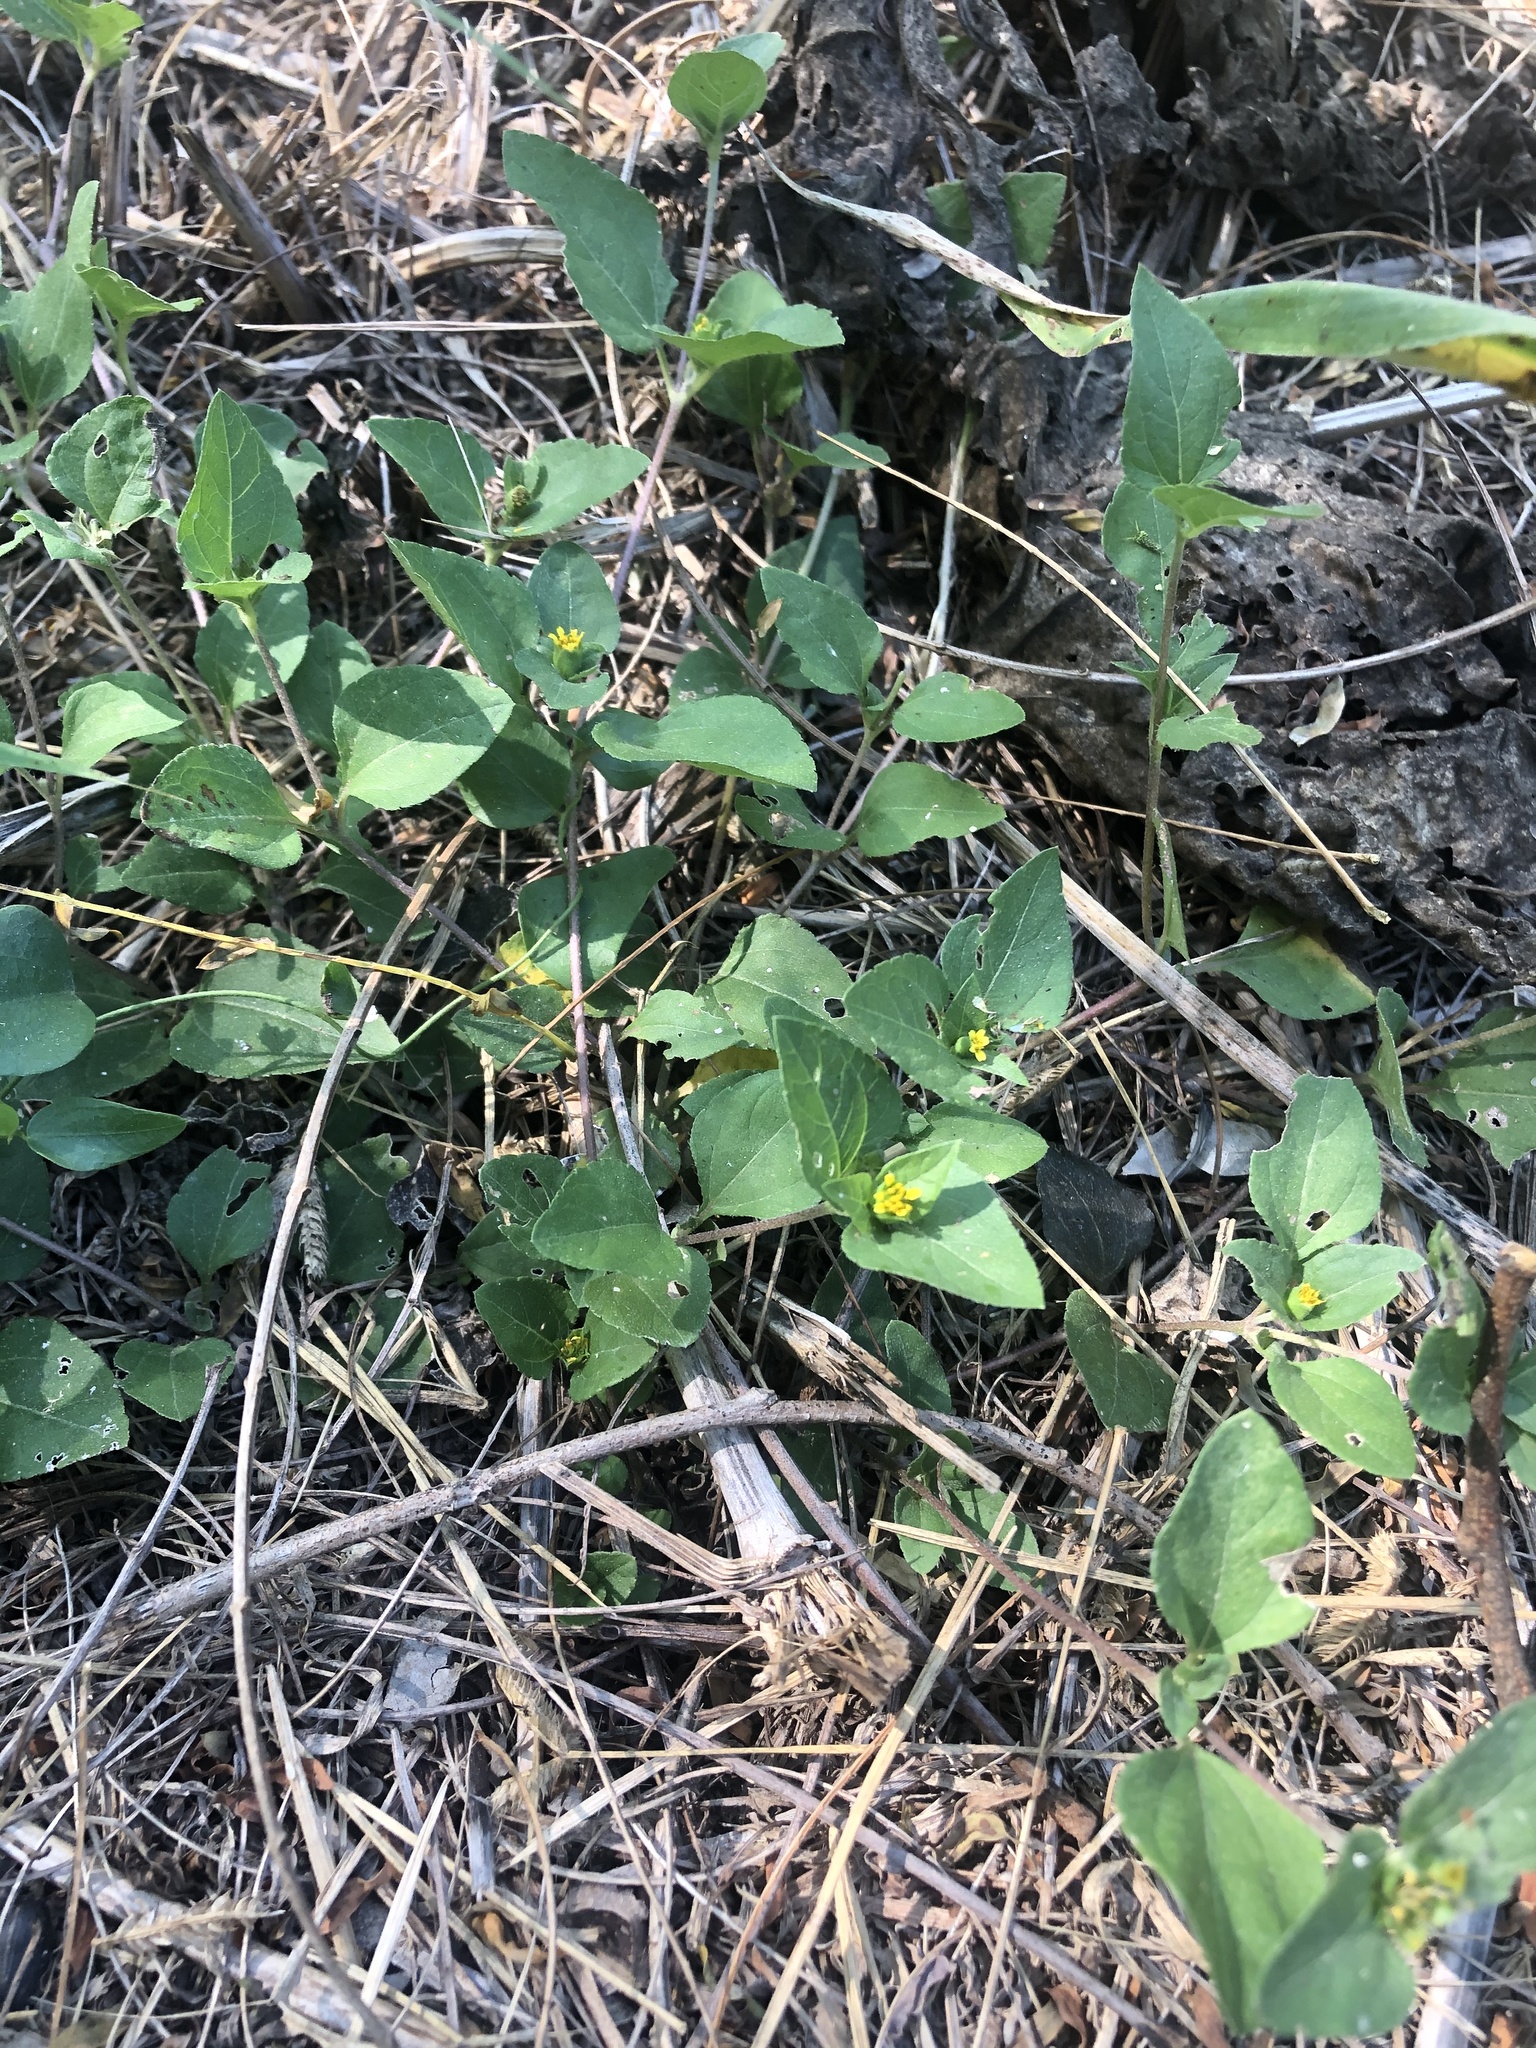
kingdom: Plantae
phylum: Tracheophyta
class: Magnoliopsida
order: Asterales
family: Asteraceae
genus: Calyptocarpus
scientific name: Calyptocarpus vialis
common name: Straggler daisy
